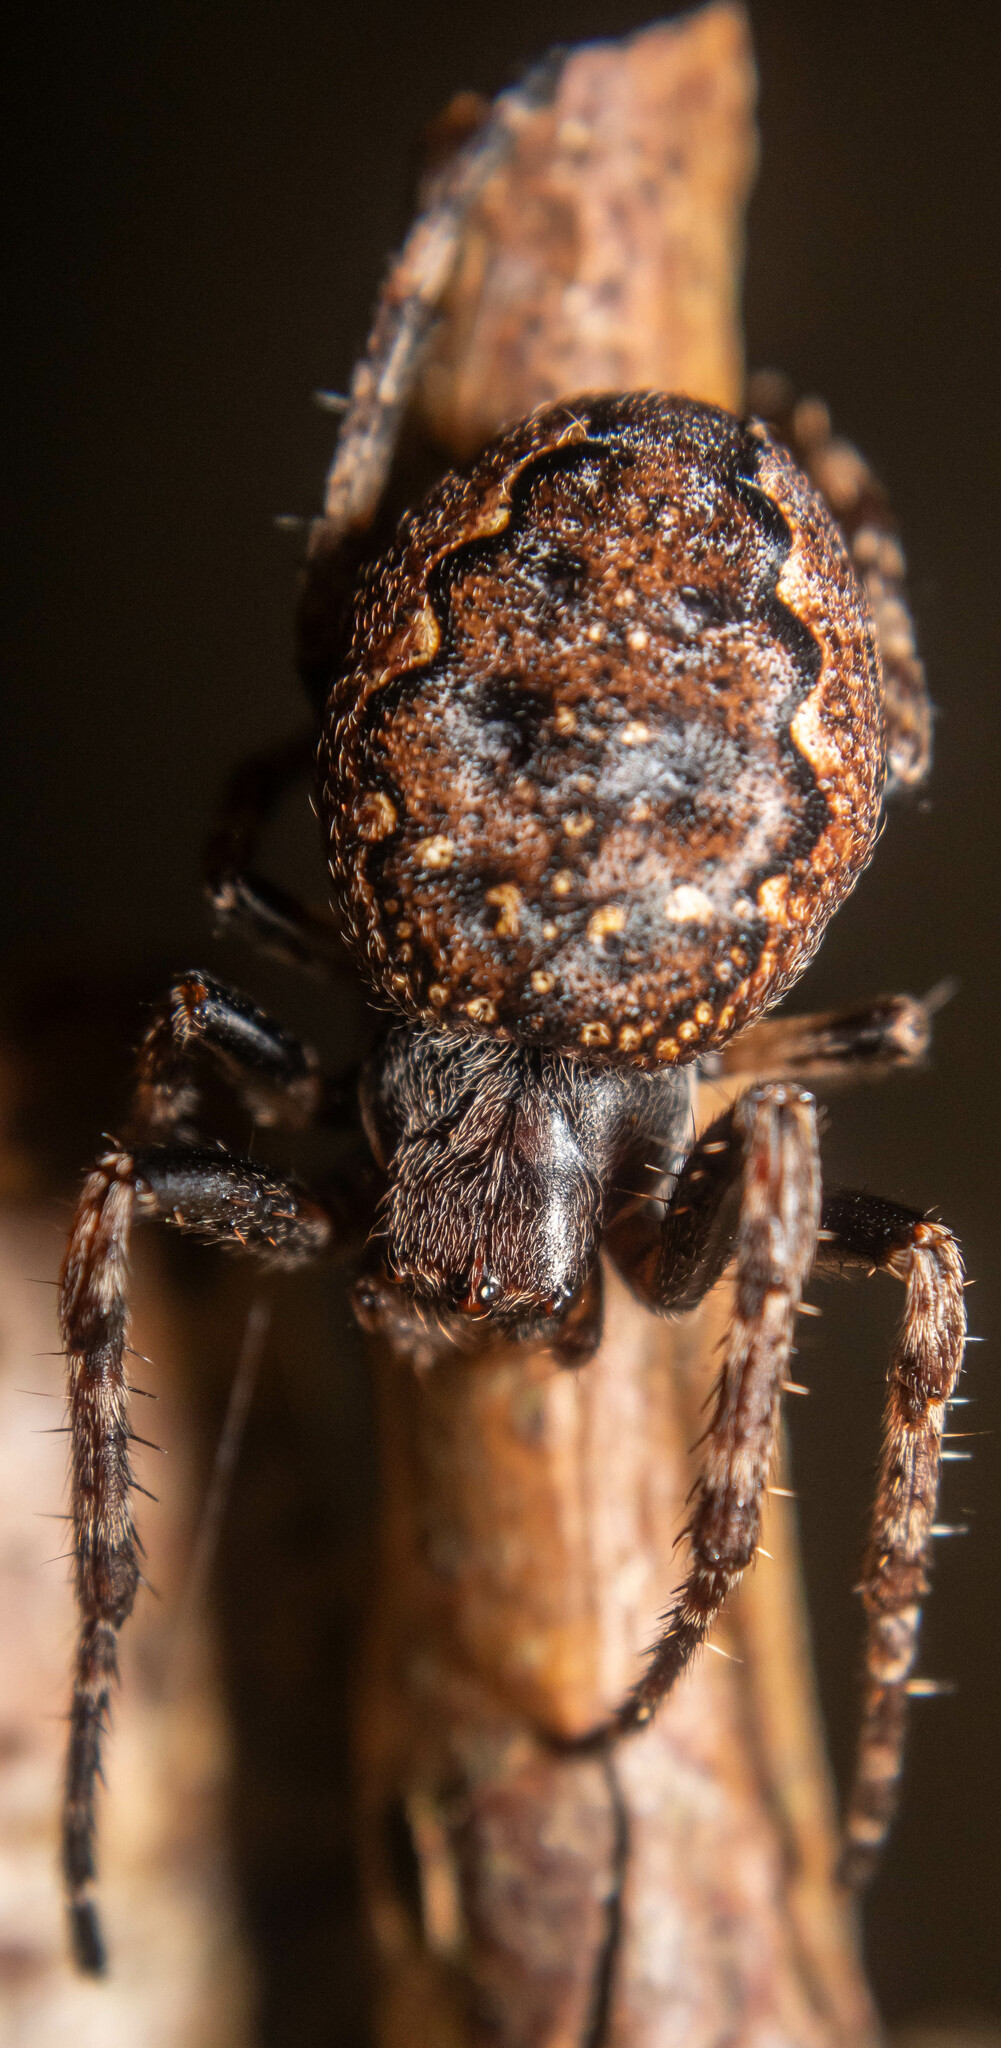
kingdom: Animalia
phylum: Arthropoda
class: Arachnida
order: Araneae
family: Araneidae
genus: Nuctenea
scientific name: Nuctenea umbratica
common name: Toad spider
